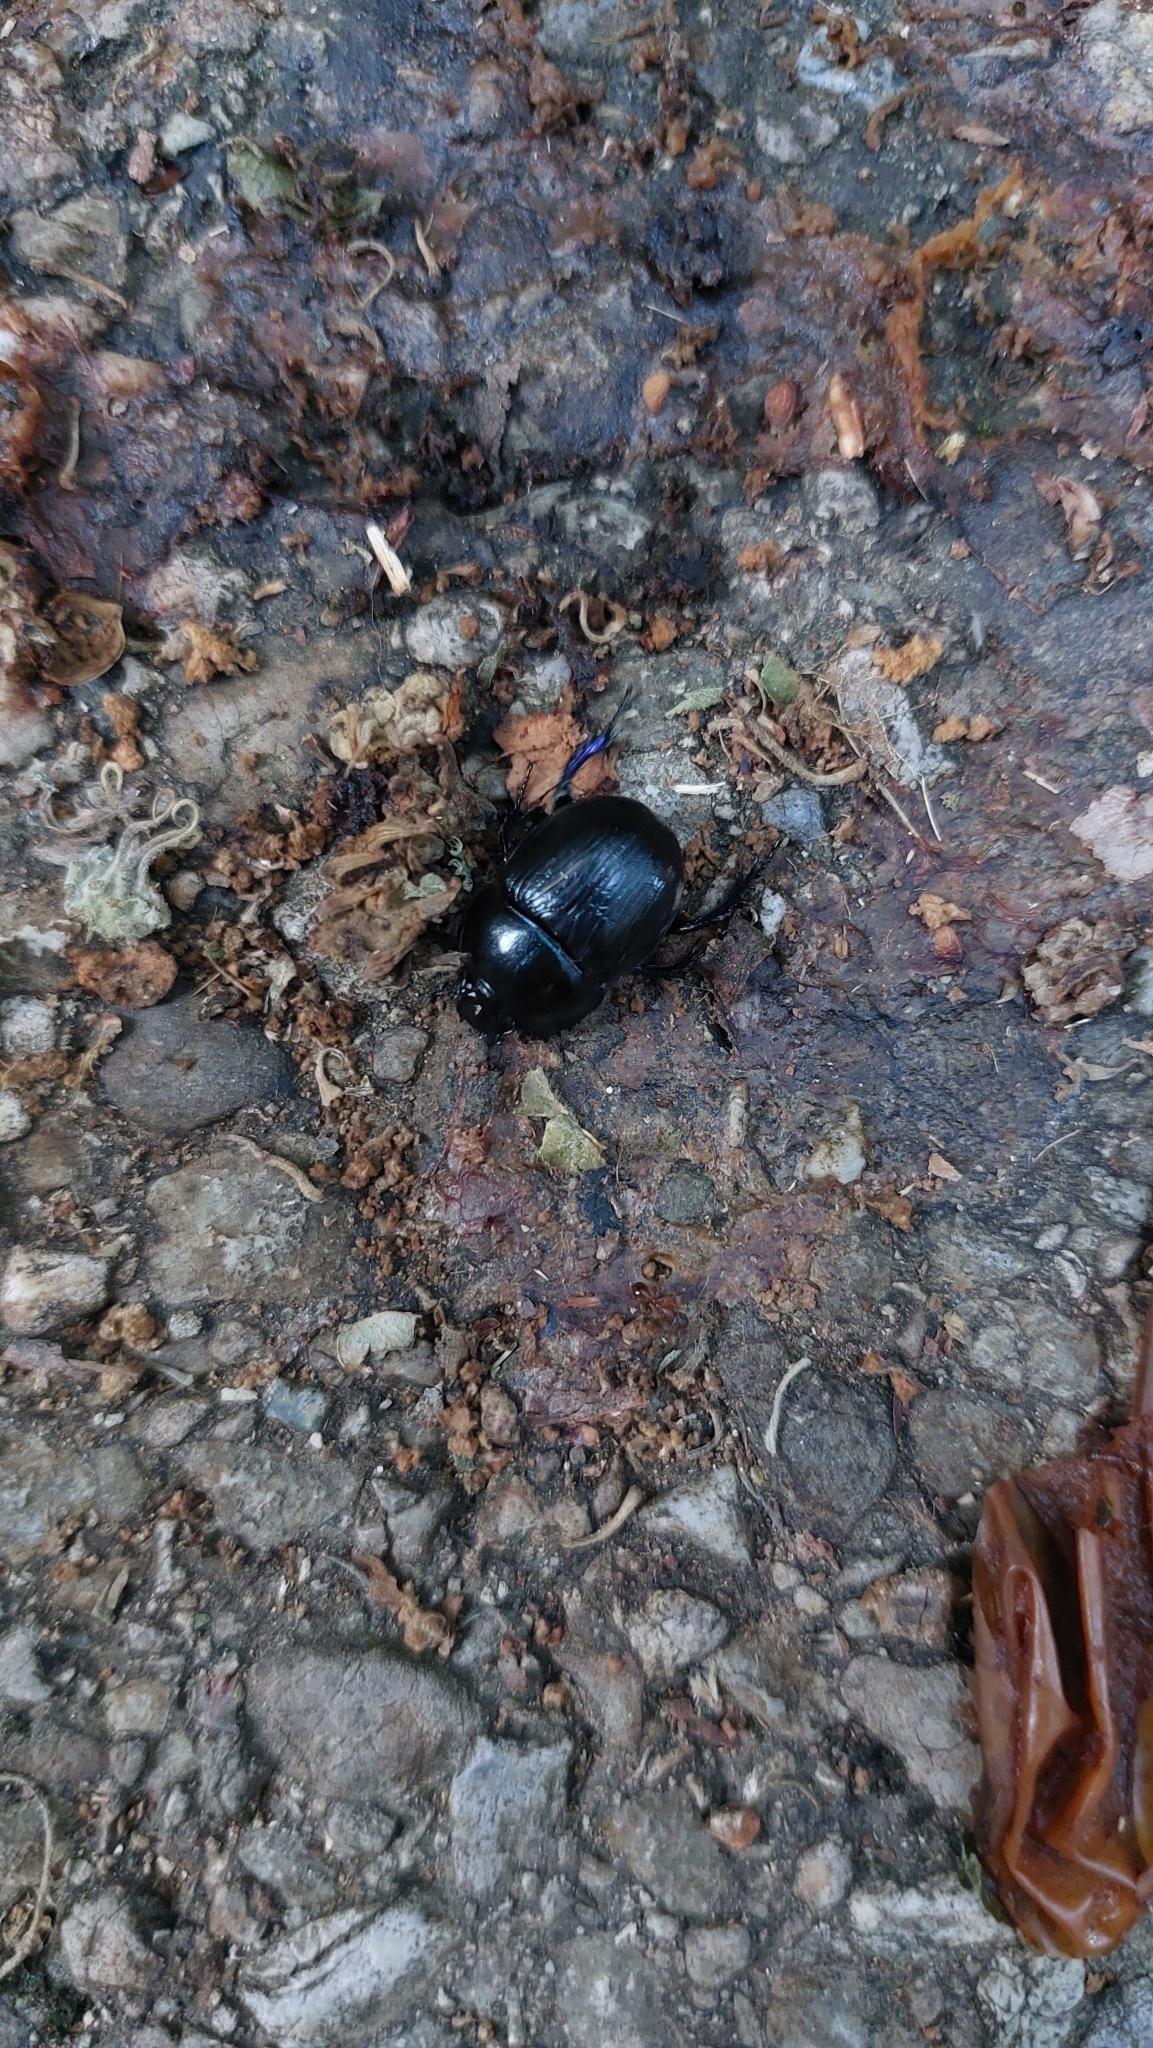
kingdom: Animalia
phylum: Arthropoda
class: Insecta
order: Coleoptera
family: Geotrupidae
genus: Anoplotrupes
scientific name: Anoplotrupes stercorosus
